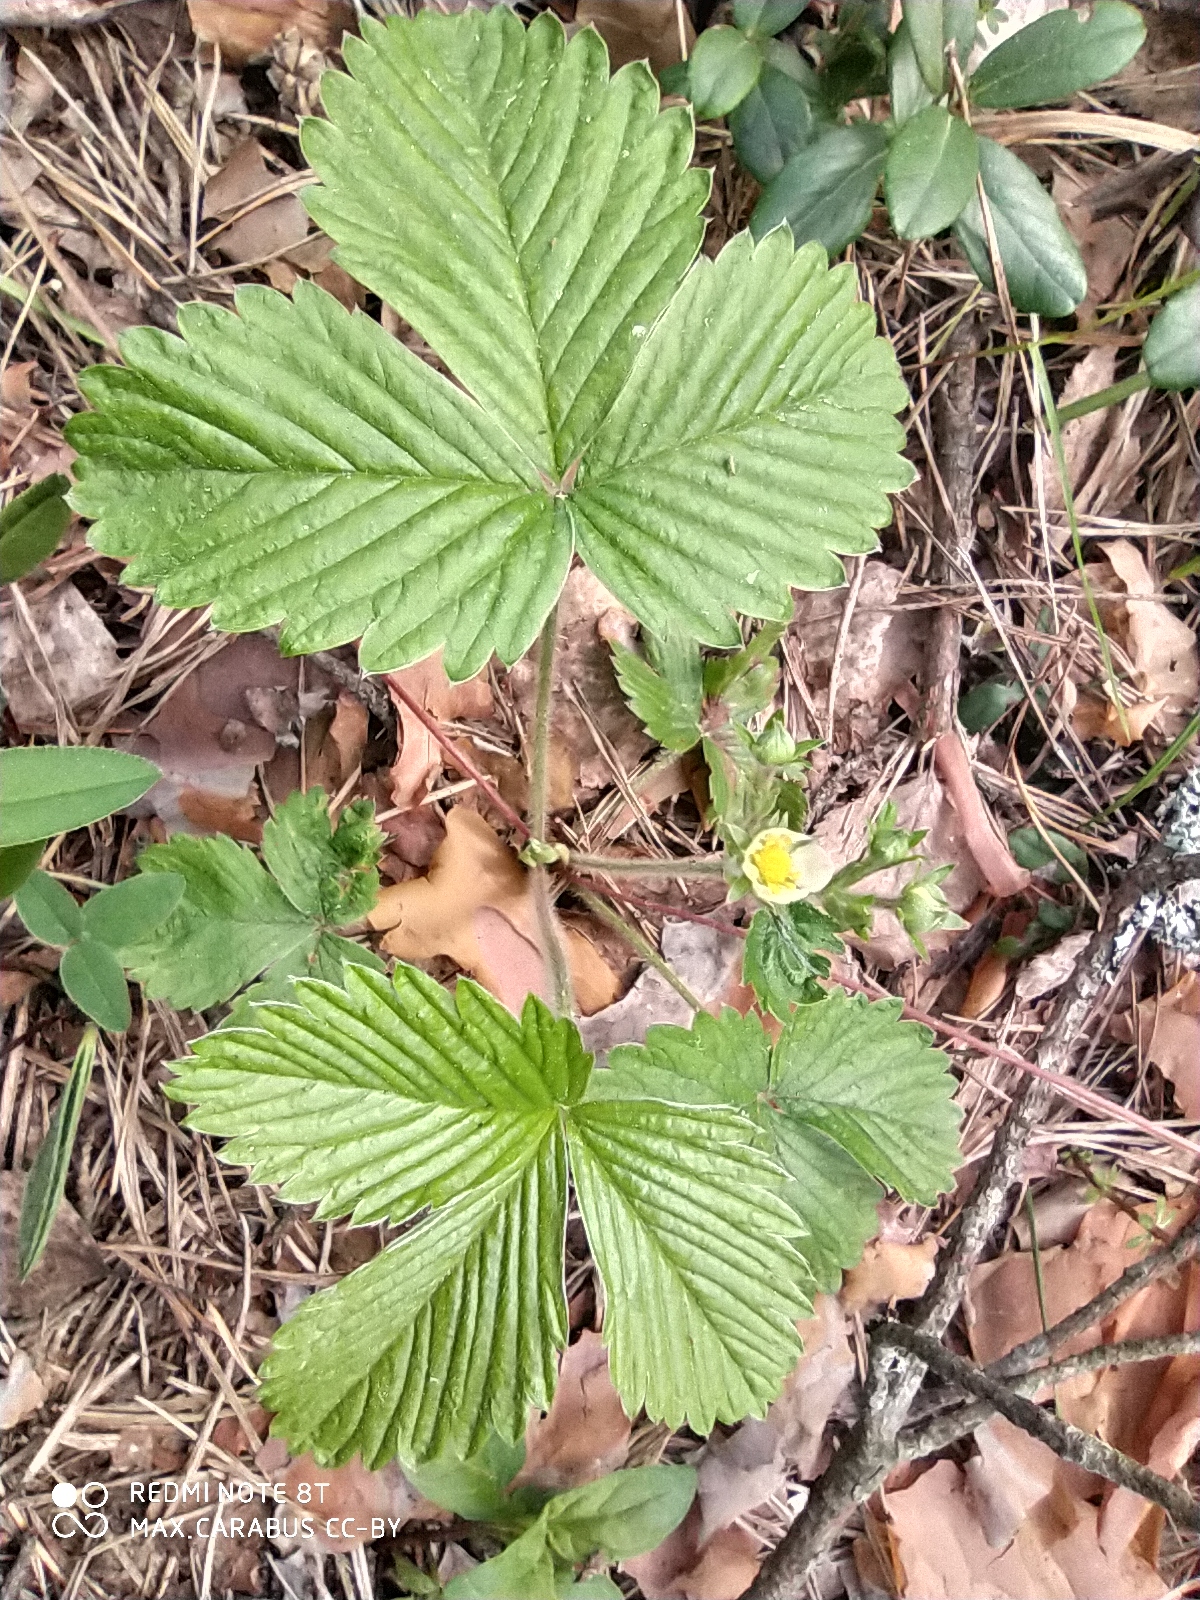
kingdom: Plantae
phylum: Tracheophyta
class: Magnoliopsida
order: Rosales
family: Rosaceae
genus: Fragaria
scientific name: Fragaria moschata
